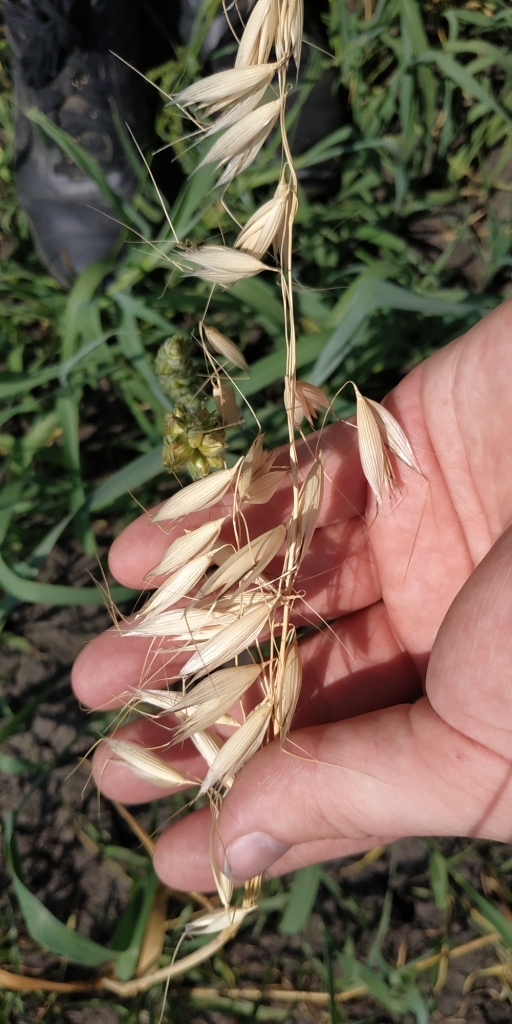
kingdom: Plantae
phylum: Tracheophyta
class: Liliopsida
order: Poales
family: Poaceae
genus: Avena
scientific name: Avena fatua
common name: Wild oat
